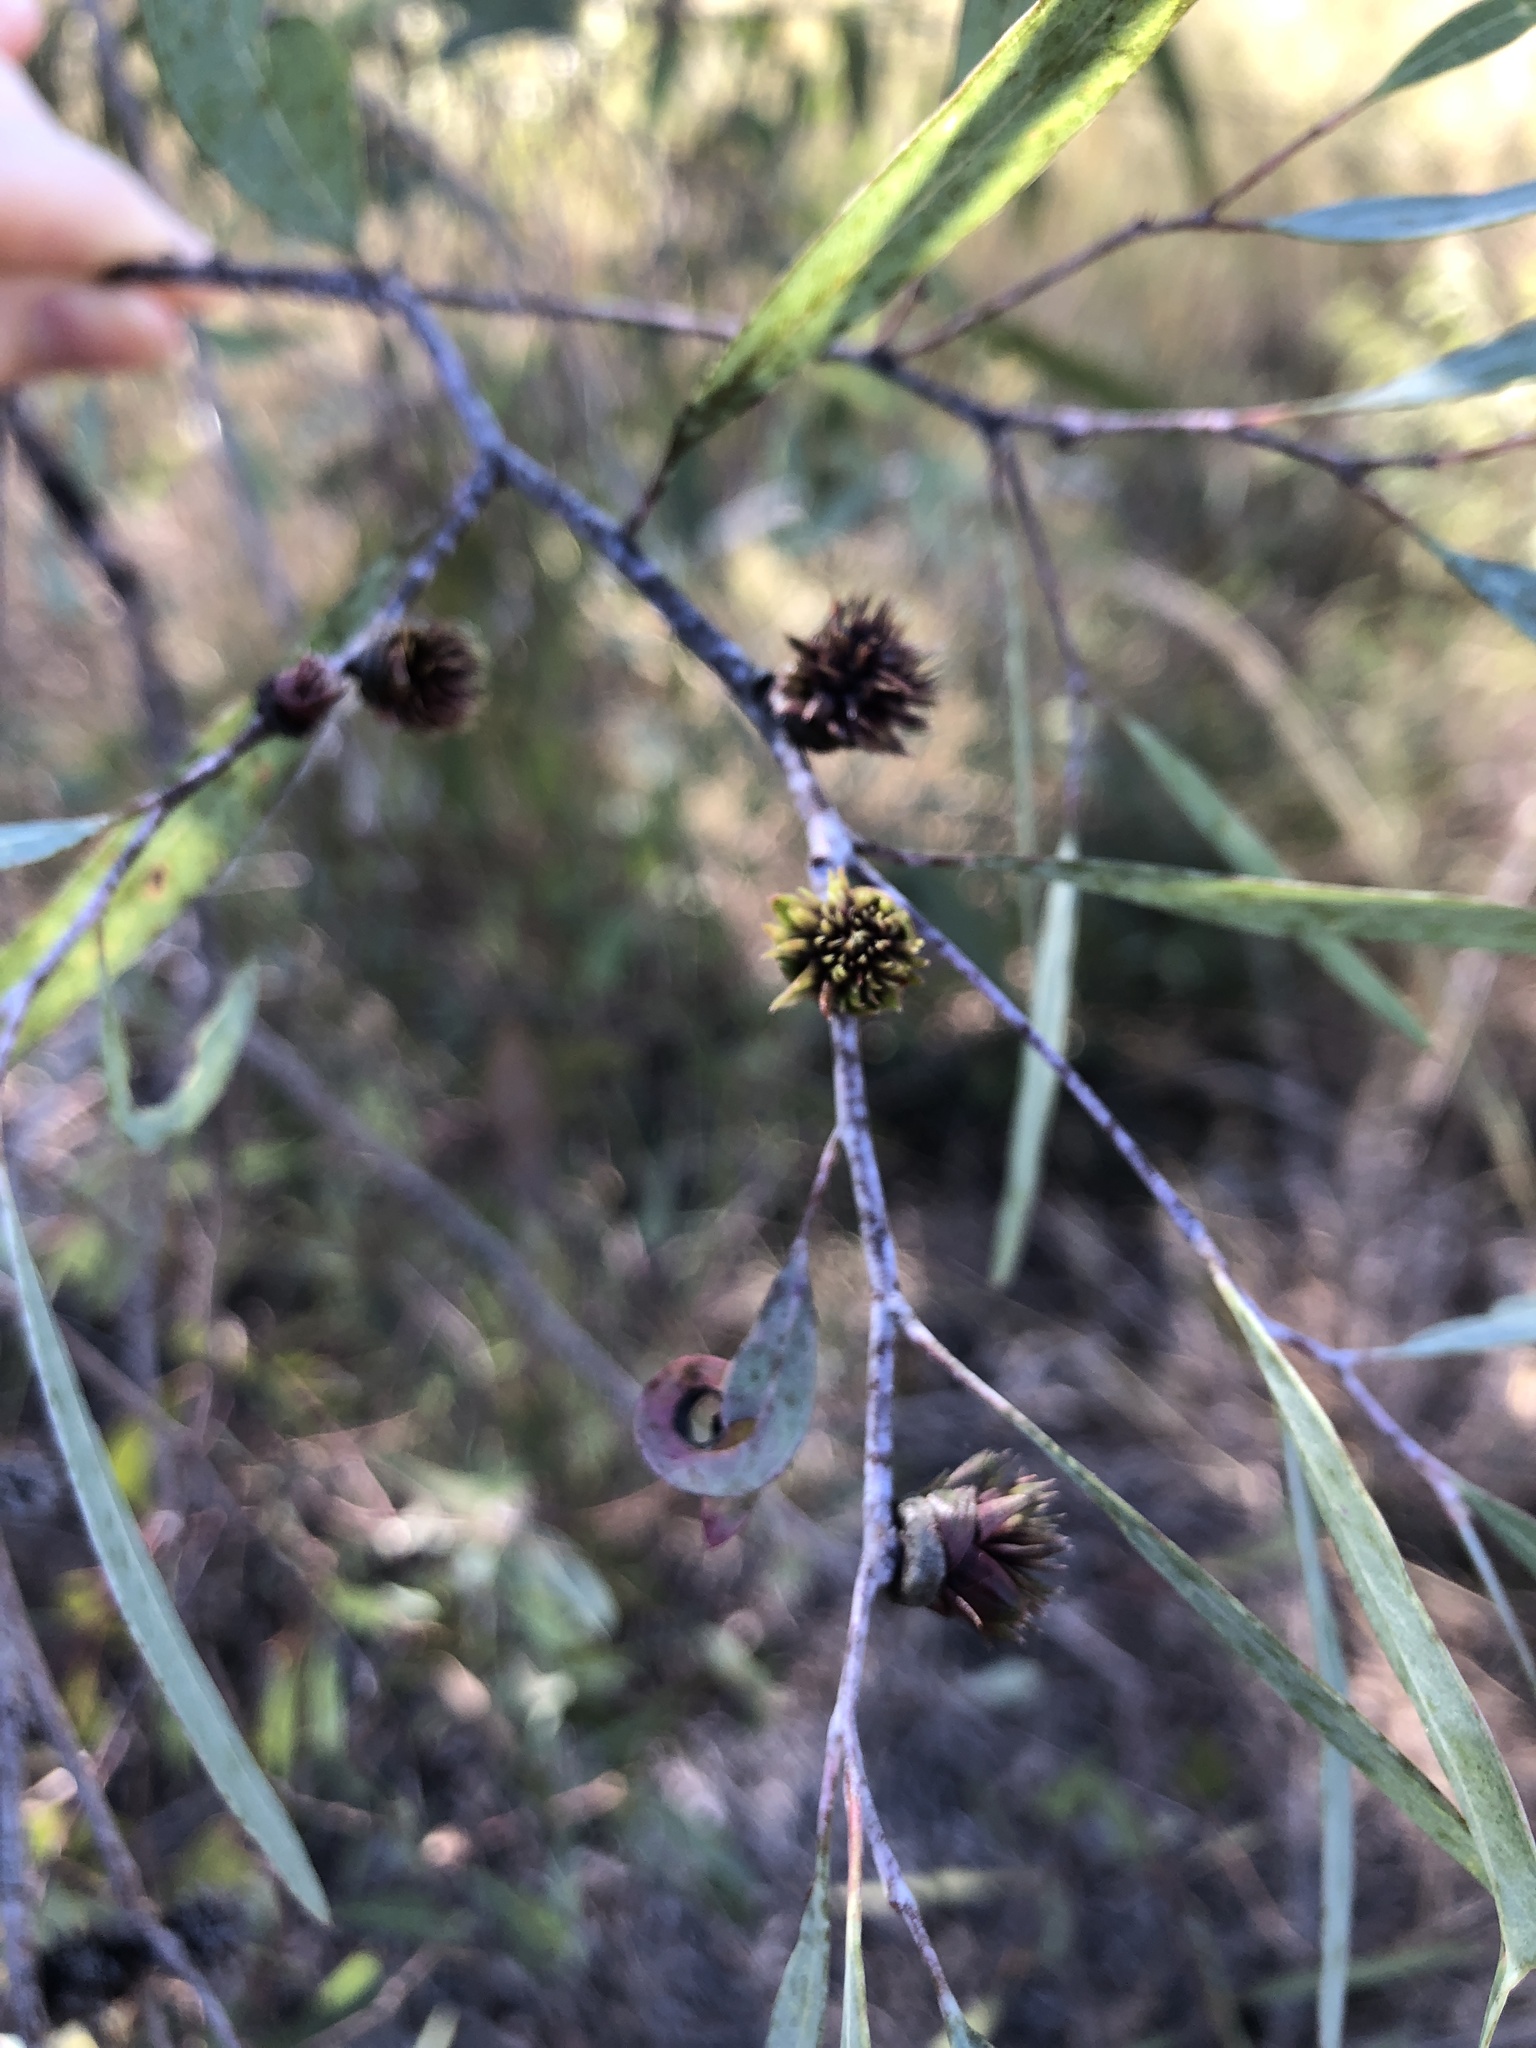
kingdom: Animalia
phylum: Arthropoda
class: Insecta
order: Hemiptera
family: Eriococcidae
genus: Apiomorpha
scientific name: Apiomorpha excupula
